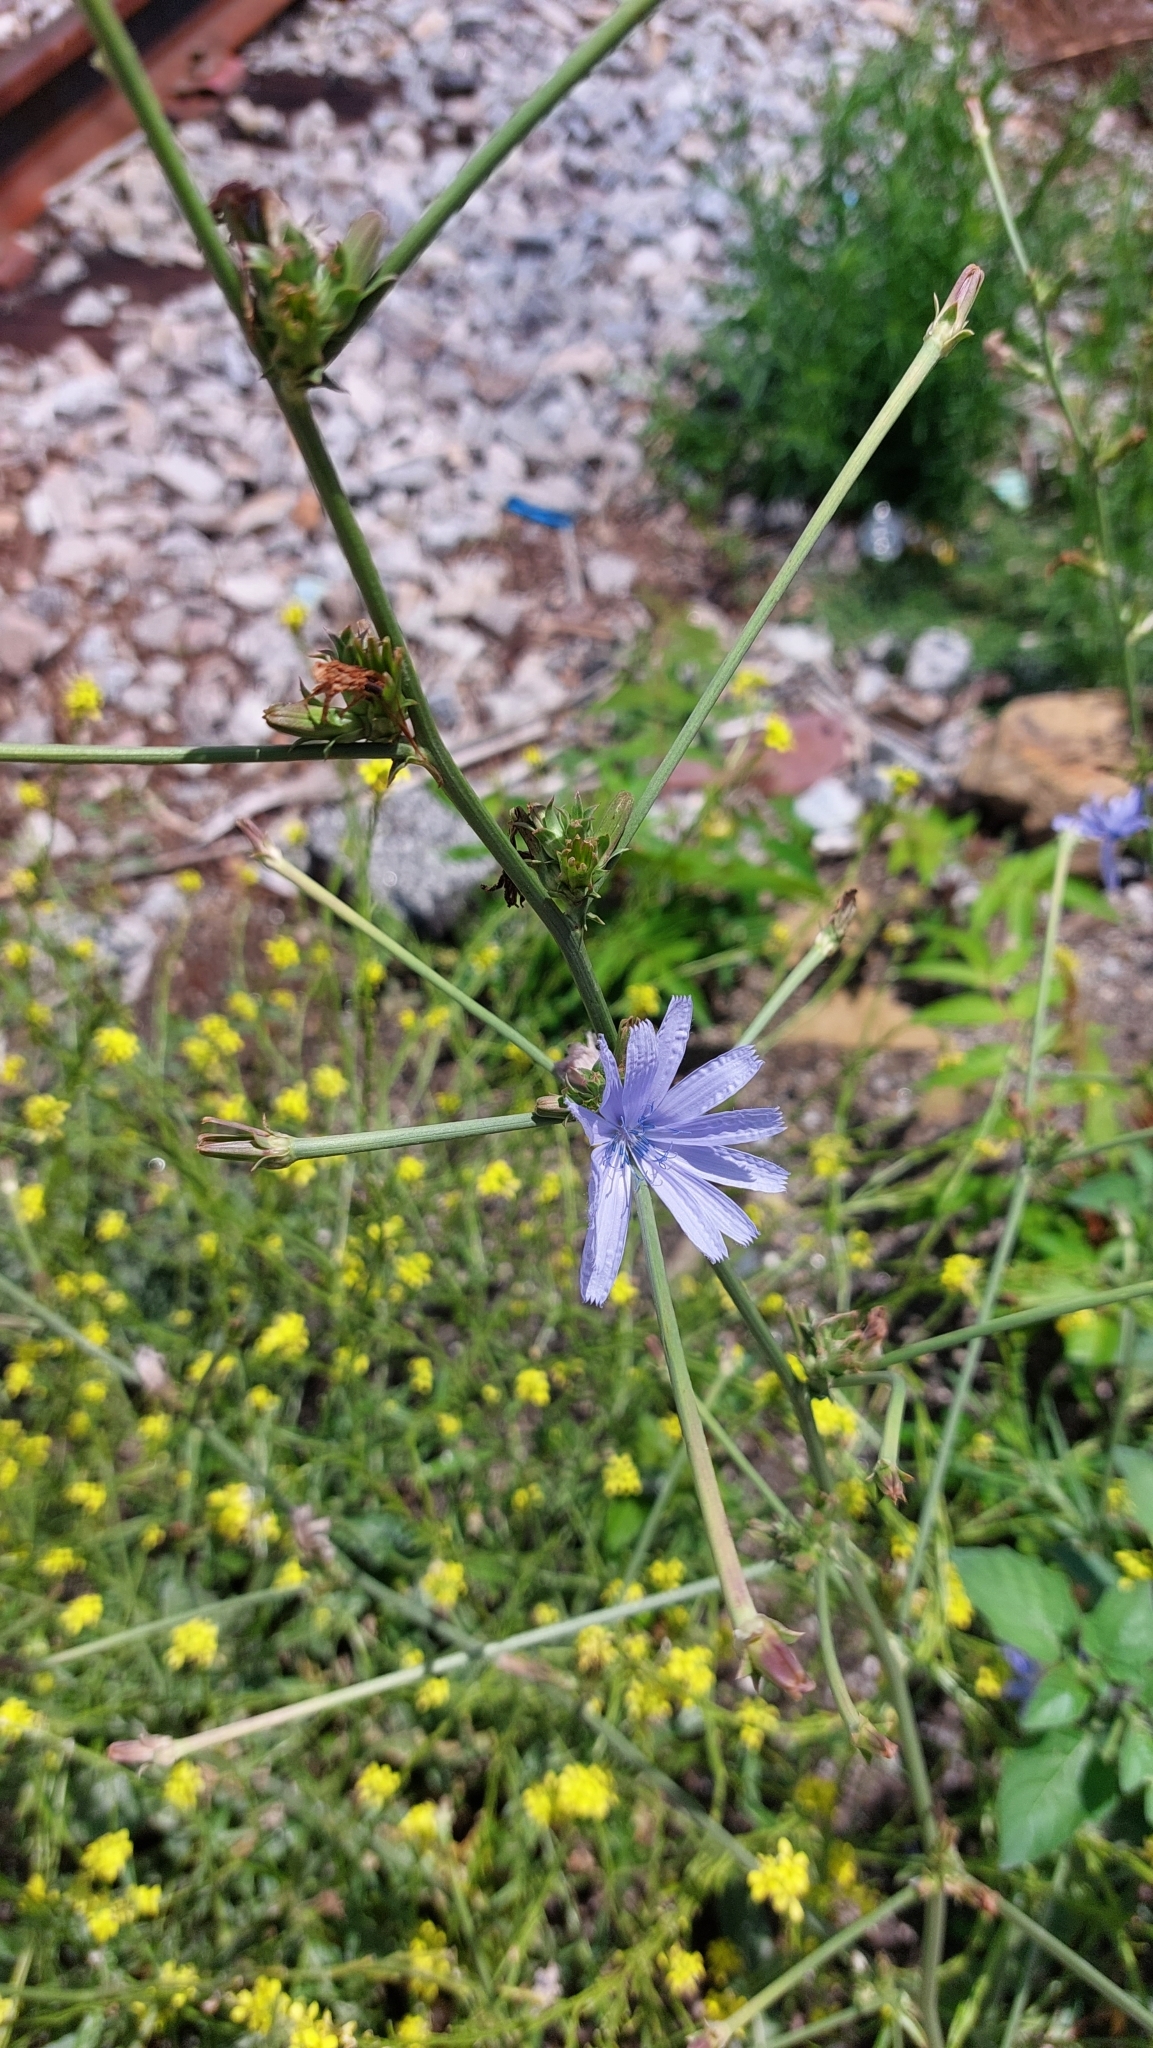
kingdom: Plantae
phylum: Tracheophyta
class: Magnoliopsida
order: Asterales
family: Asteraceae
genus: Cichorium
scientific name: Cichorium intybus
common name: Chicory
